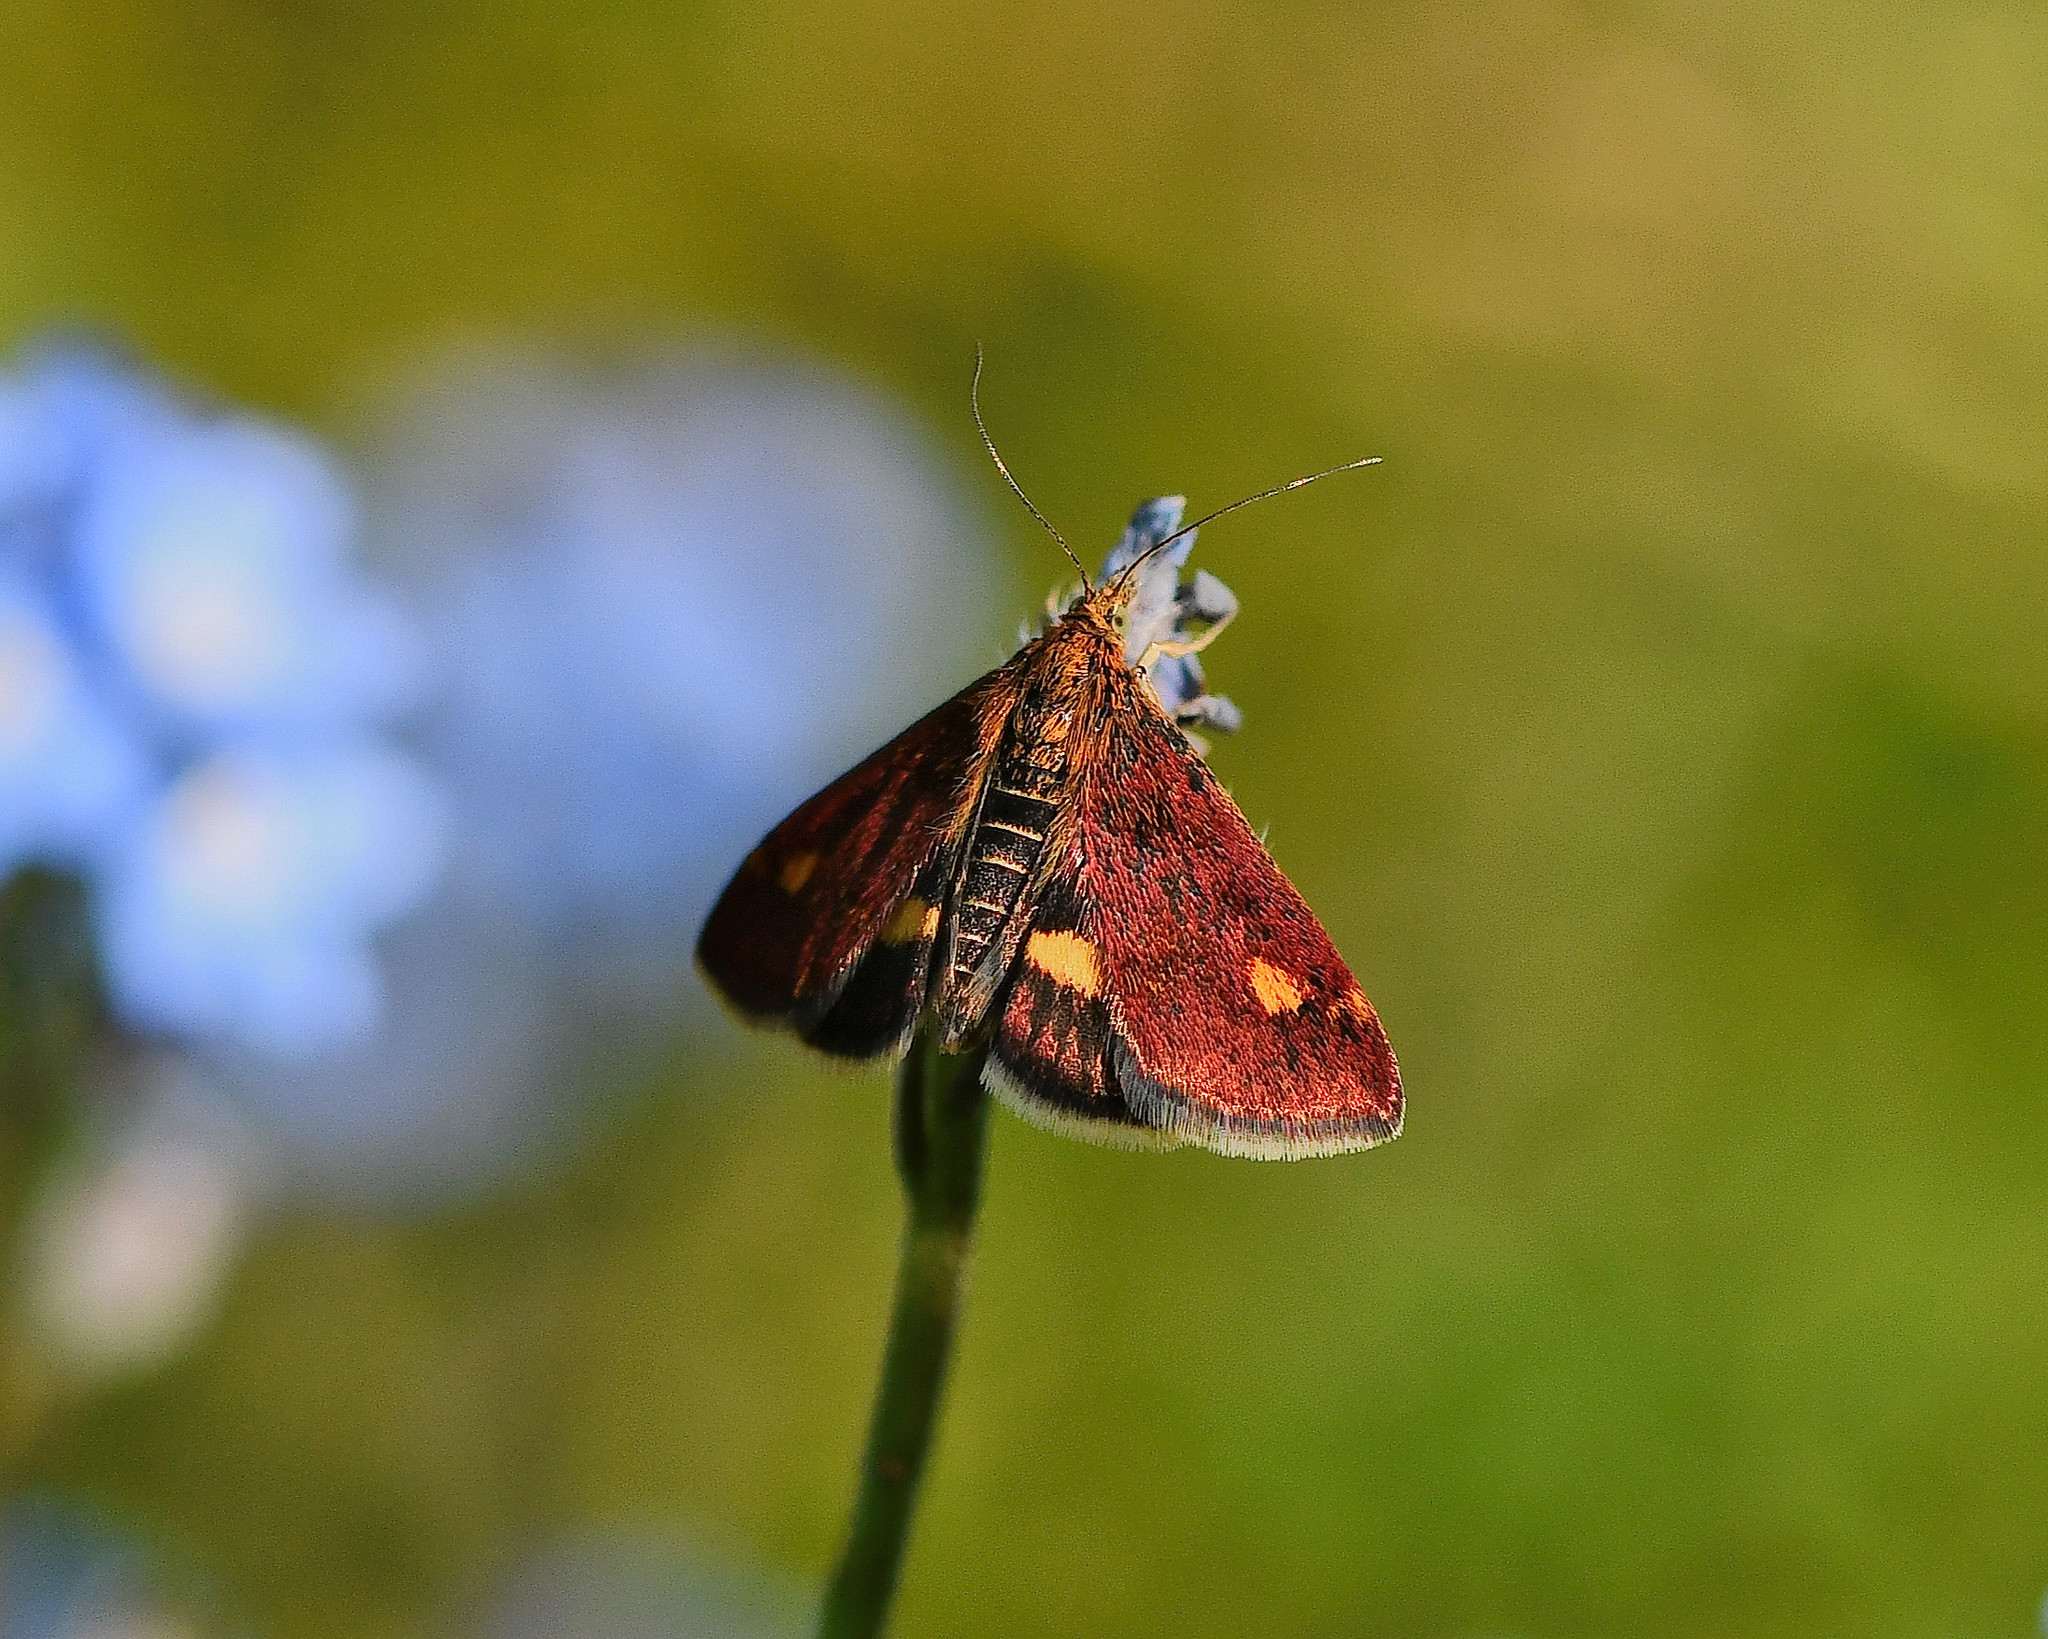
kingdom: Animalia
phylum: Arthropoda
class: Insecta
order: Lepidoptera
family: Crambidae
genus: Pyrausta
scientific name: Pyrausta aurata
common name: Small purple & gold
